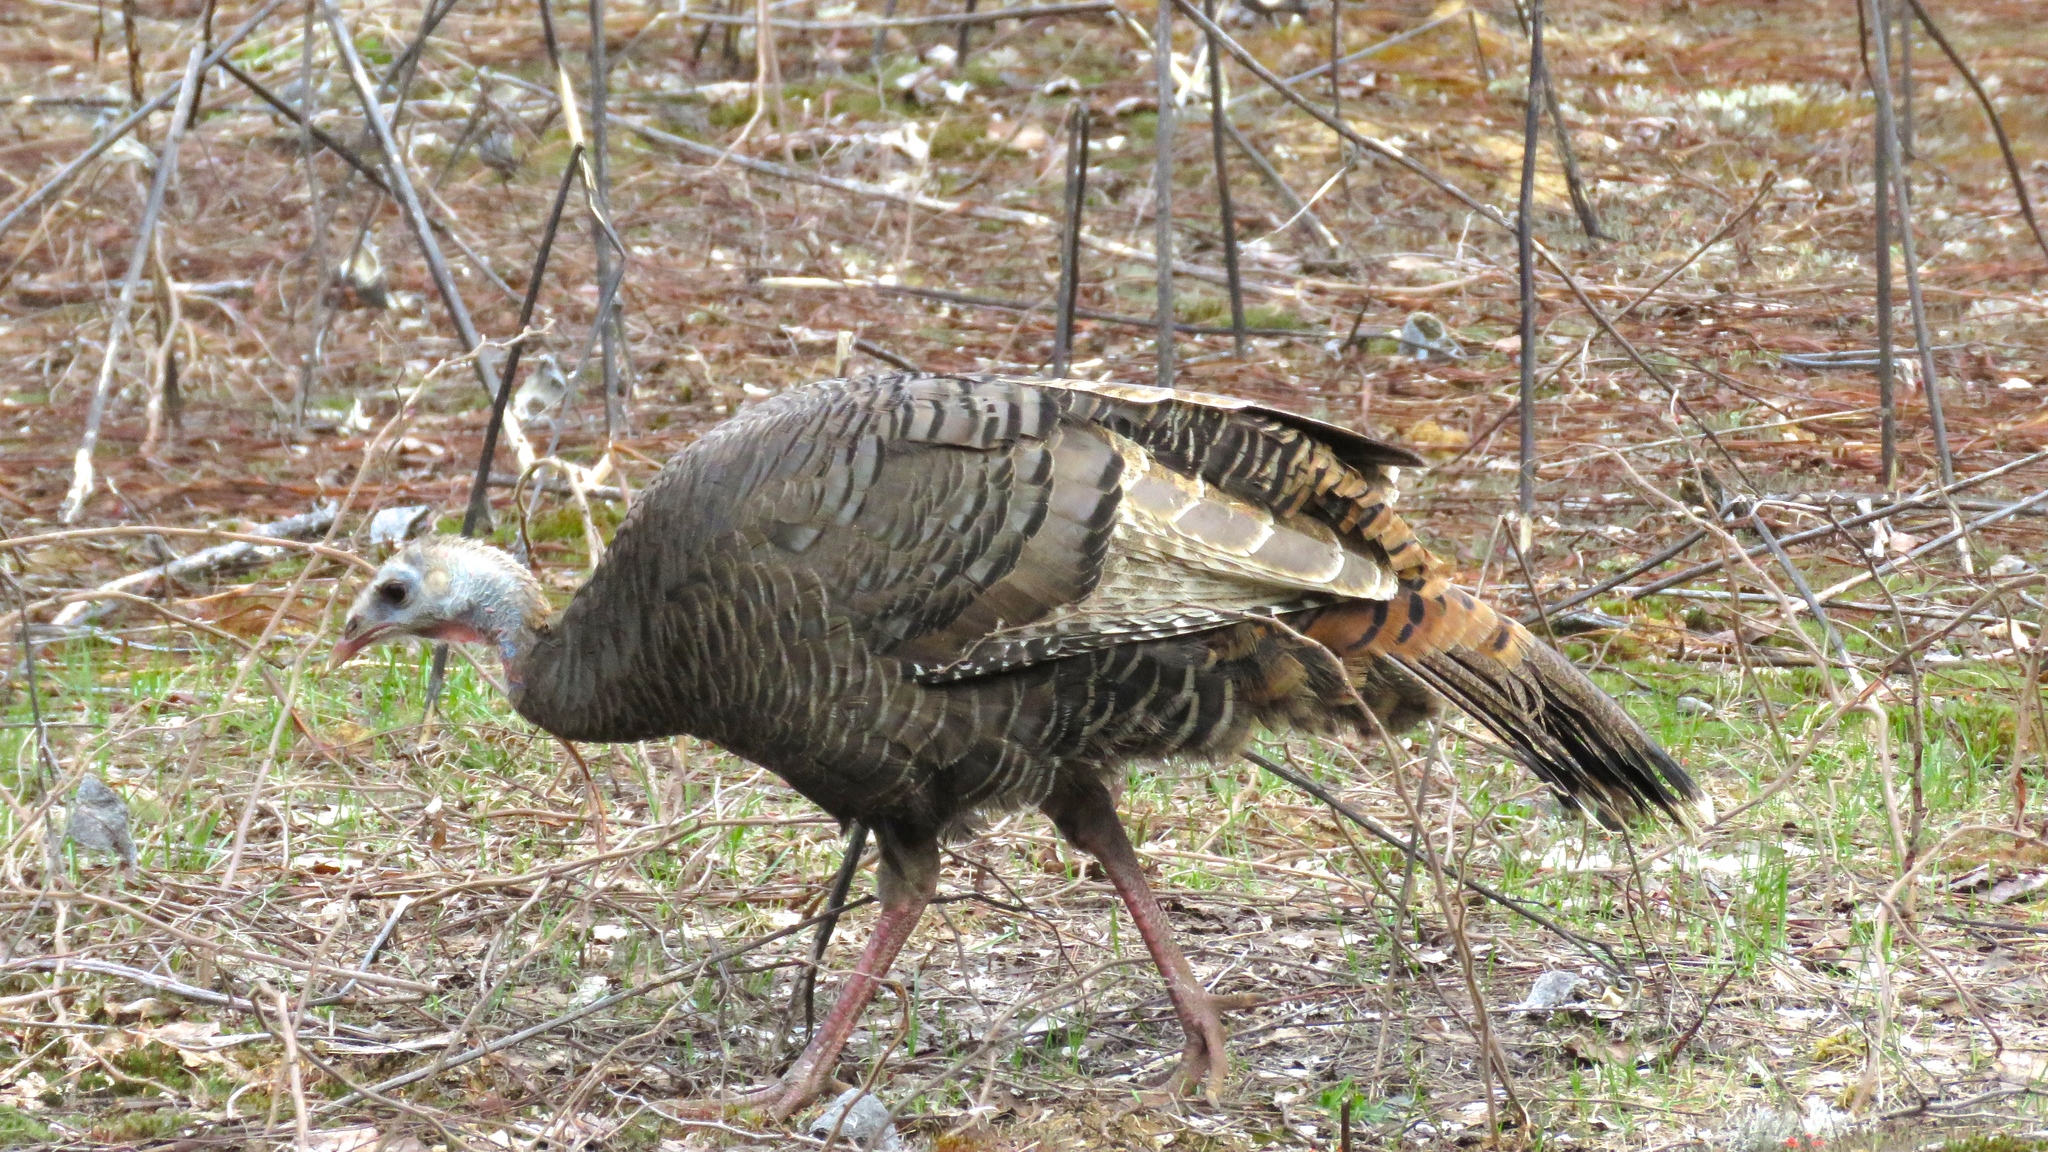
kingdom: Animalia
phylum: Chordata
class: Aves
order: Galliformes
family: Phasianidae
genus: Meleagris
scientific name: Meleagris gallopavo
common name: Wild turkey
